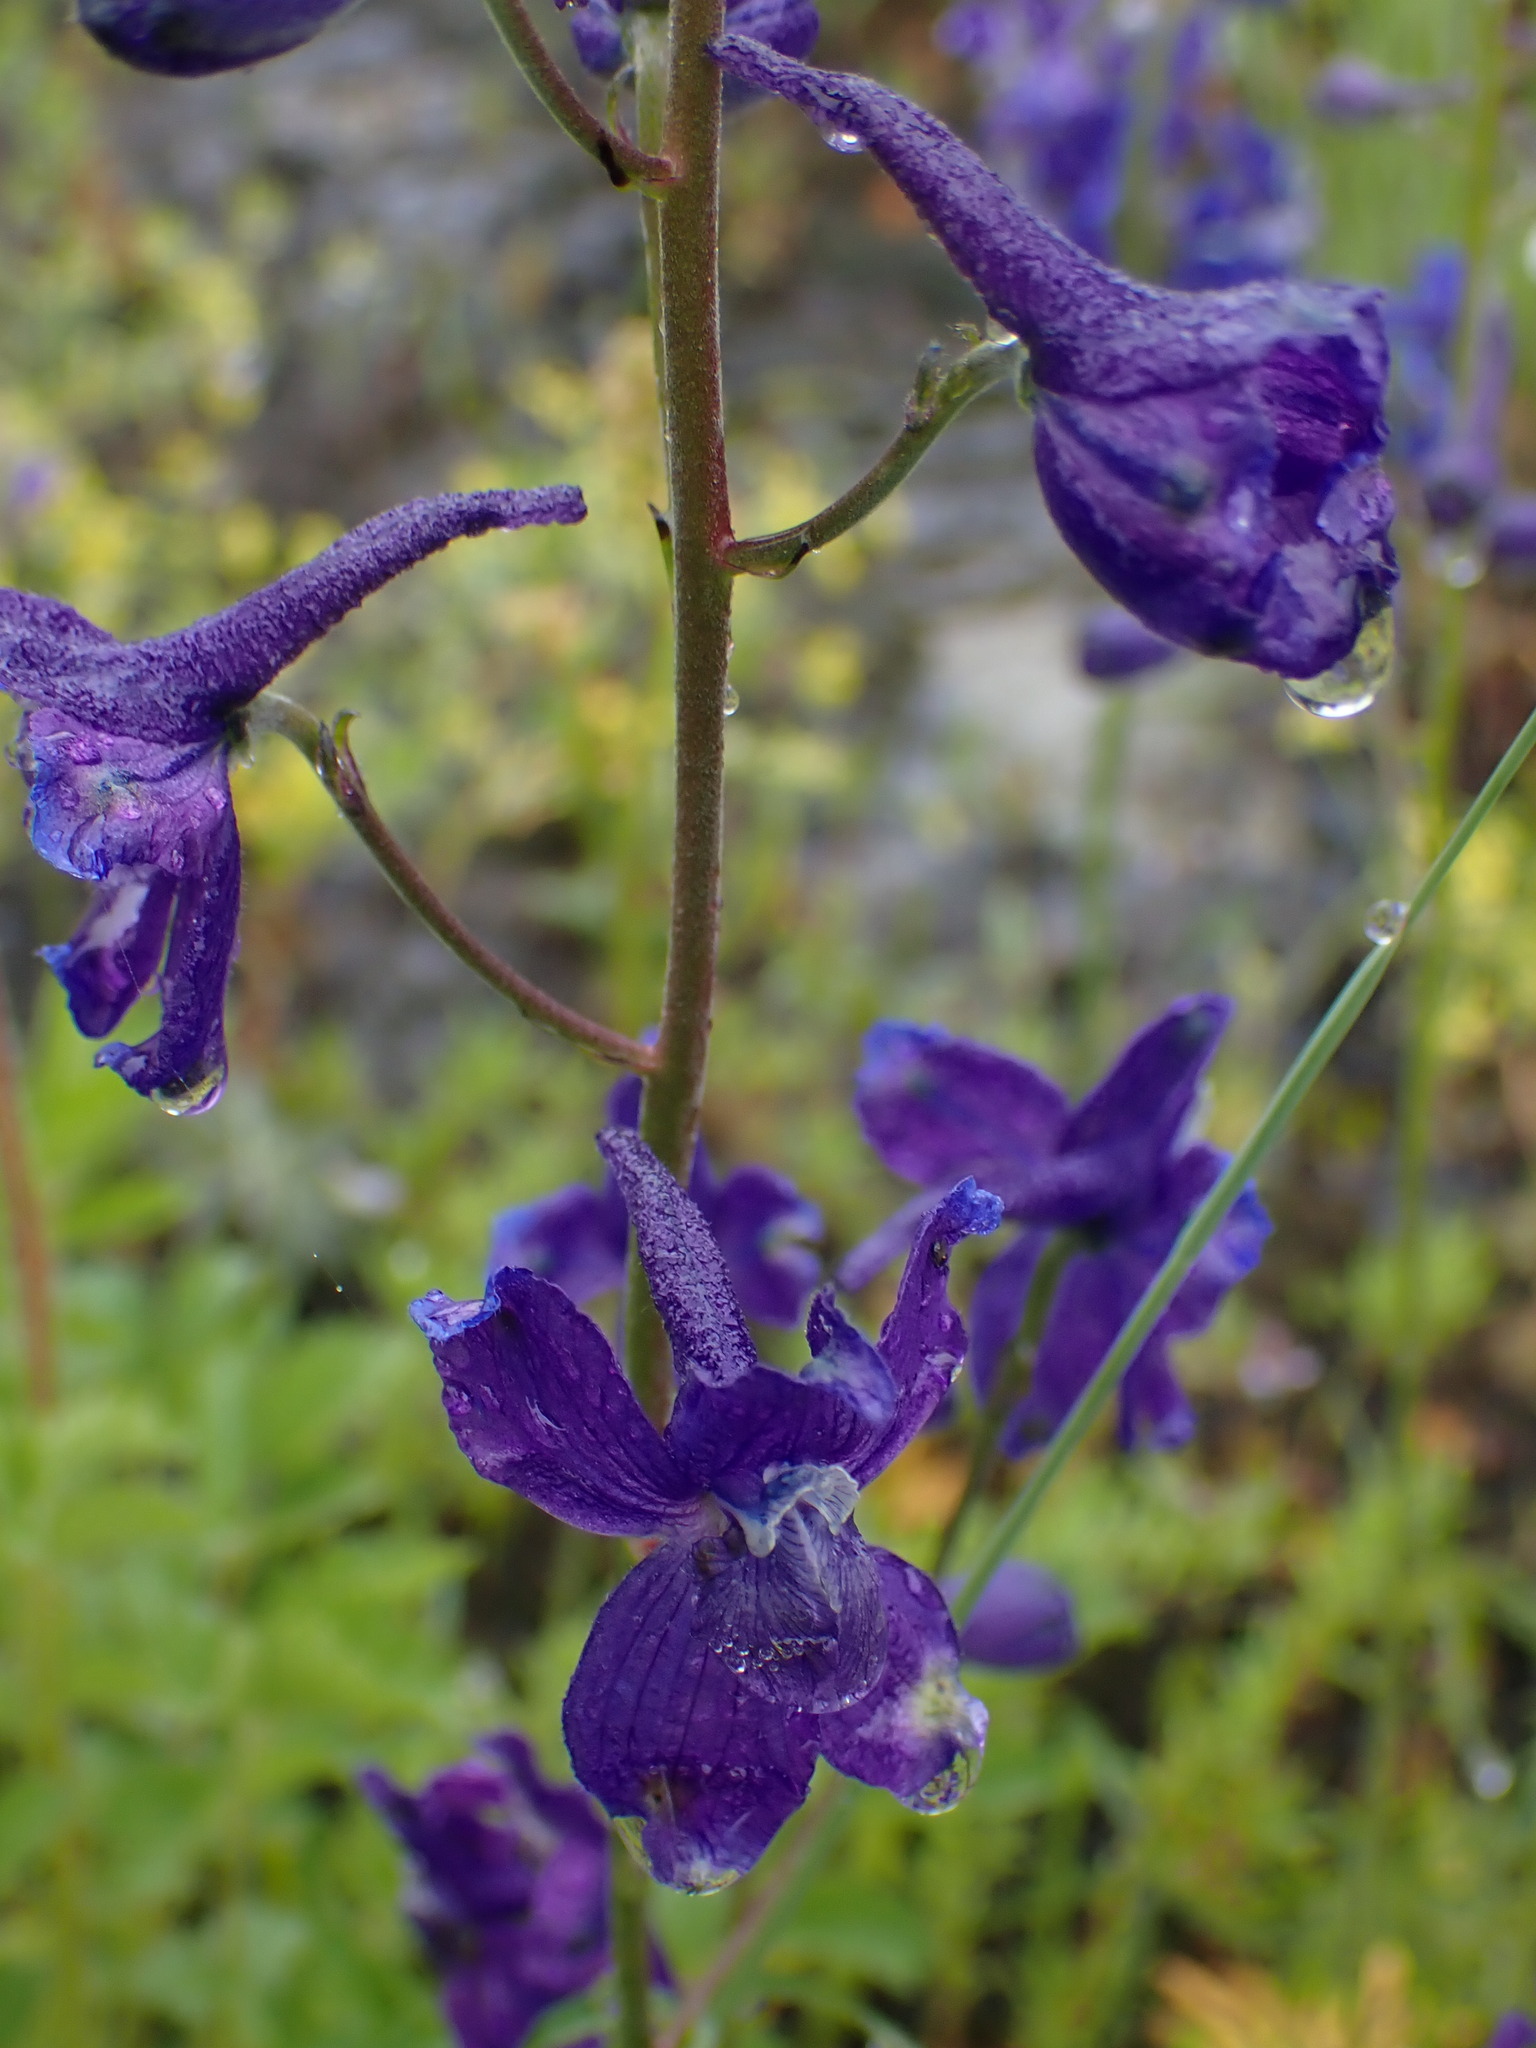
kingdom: Plantae
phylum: Tracheophyta
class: Magnoliopsida
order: Ranunculales
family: Ranunculaceae
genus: Delphinium
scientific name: Delphinium nuttallianum
